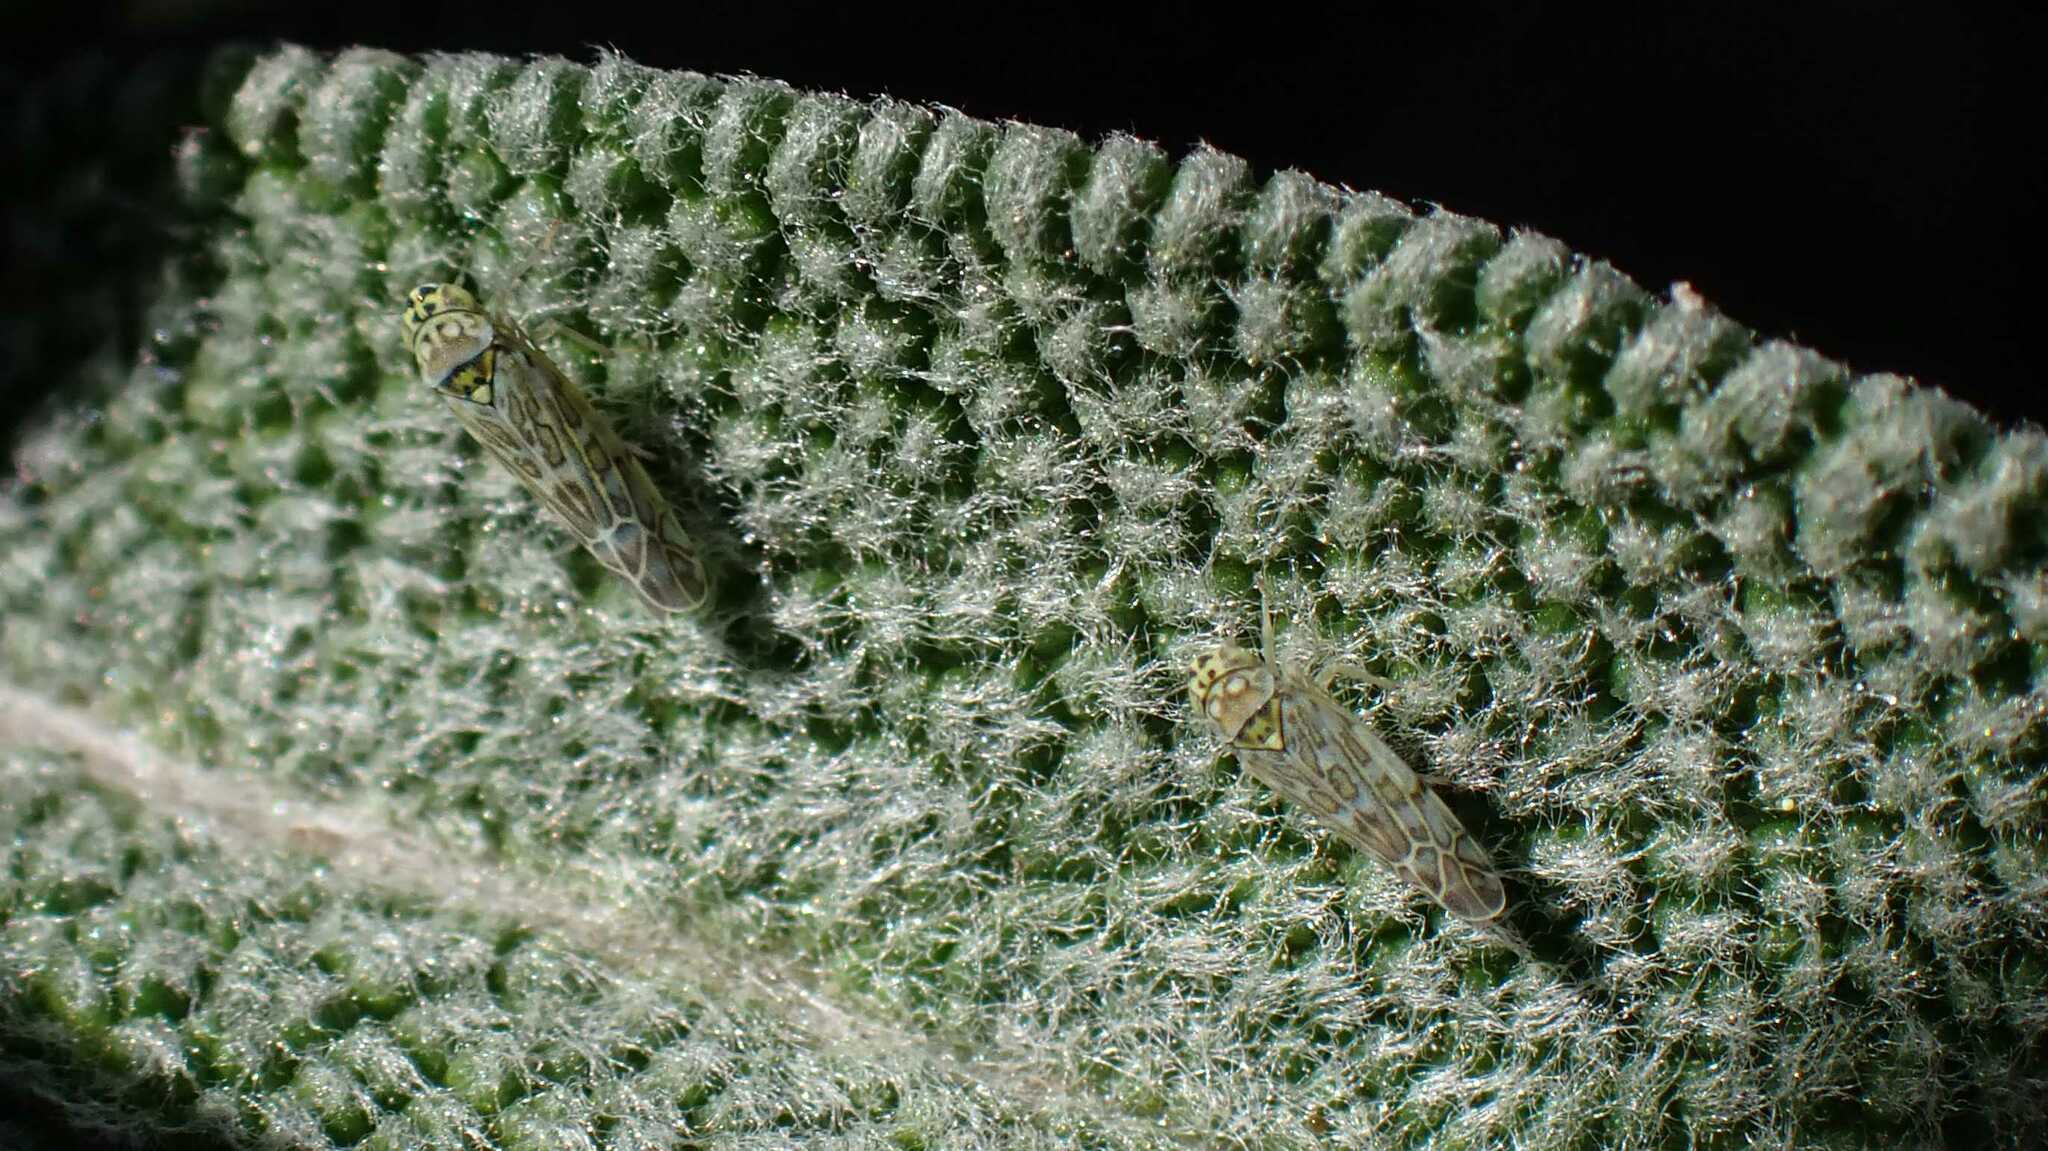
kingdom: Animalia
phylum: Arthropoda
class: Insecta
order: Hemiptera
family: Cicadellidae
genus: Eupteryx
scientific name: Eupteryx decemnotata
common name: Ligurian leafhopper
